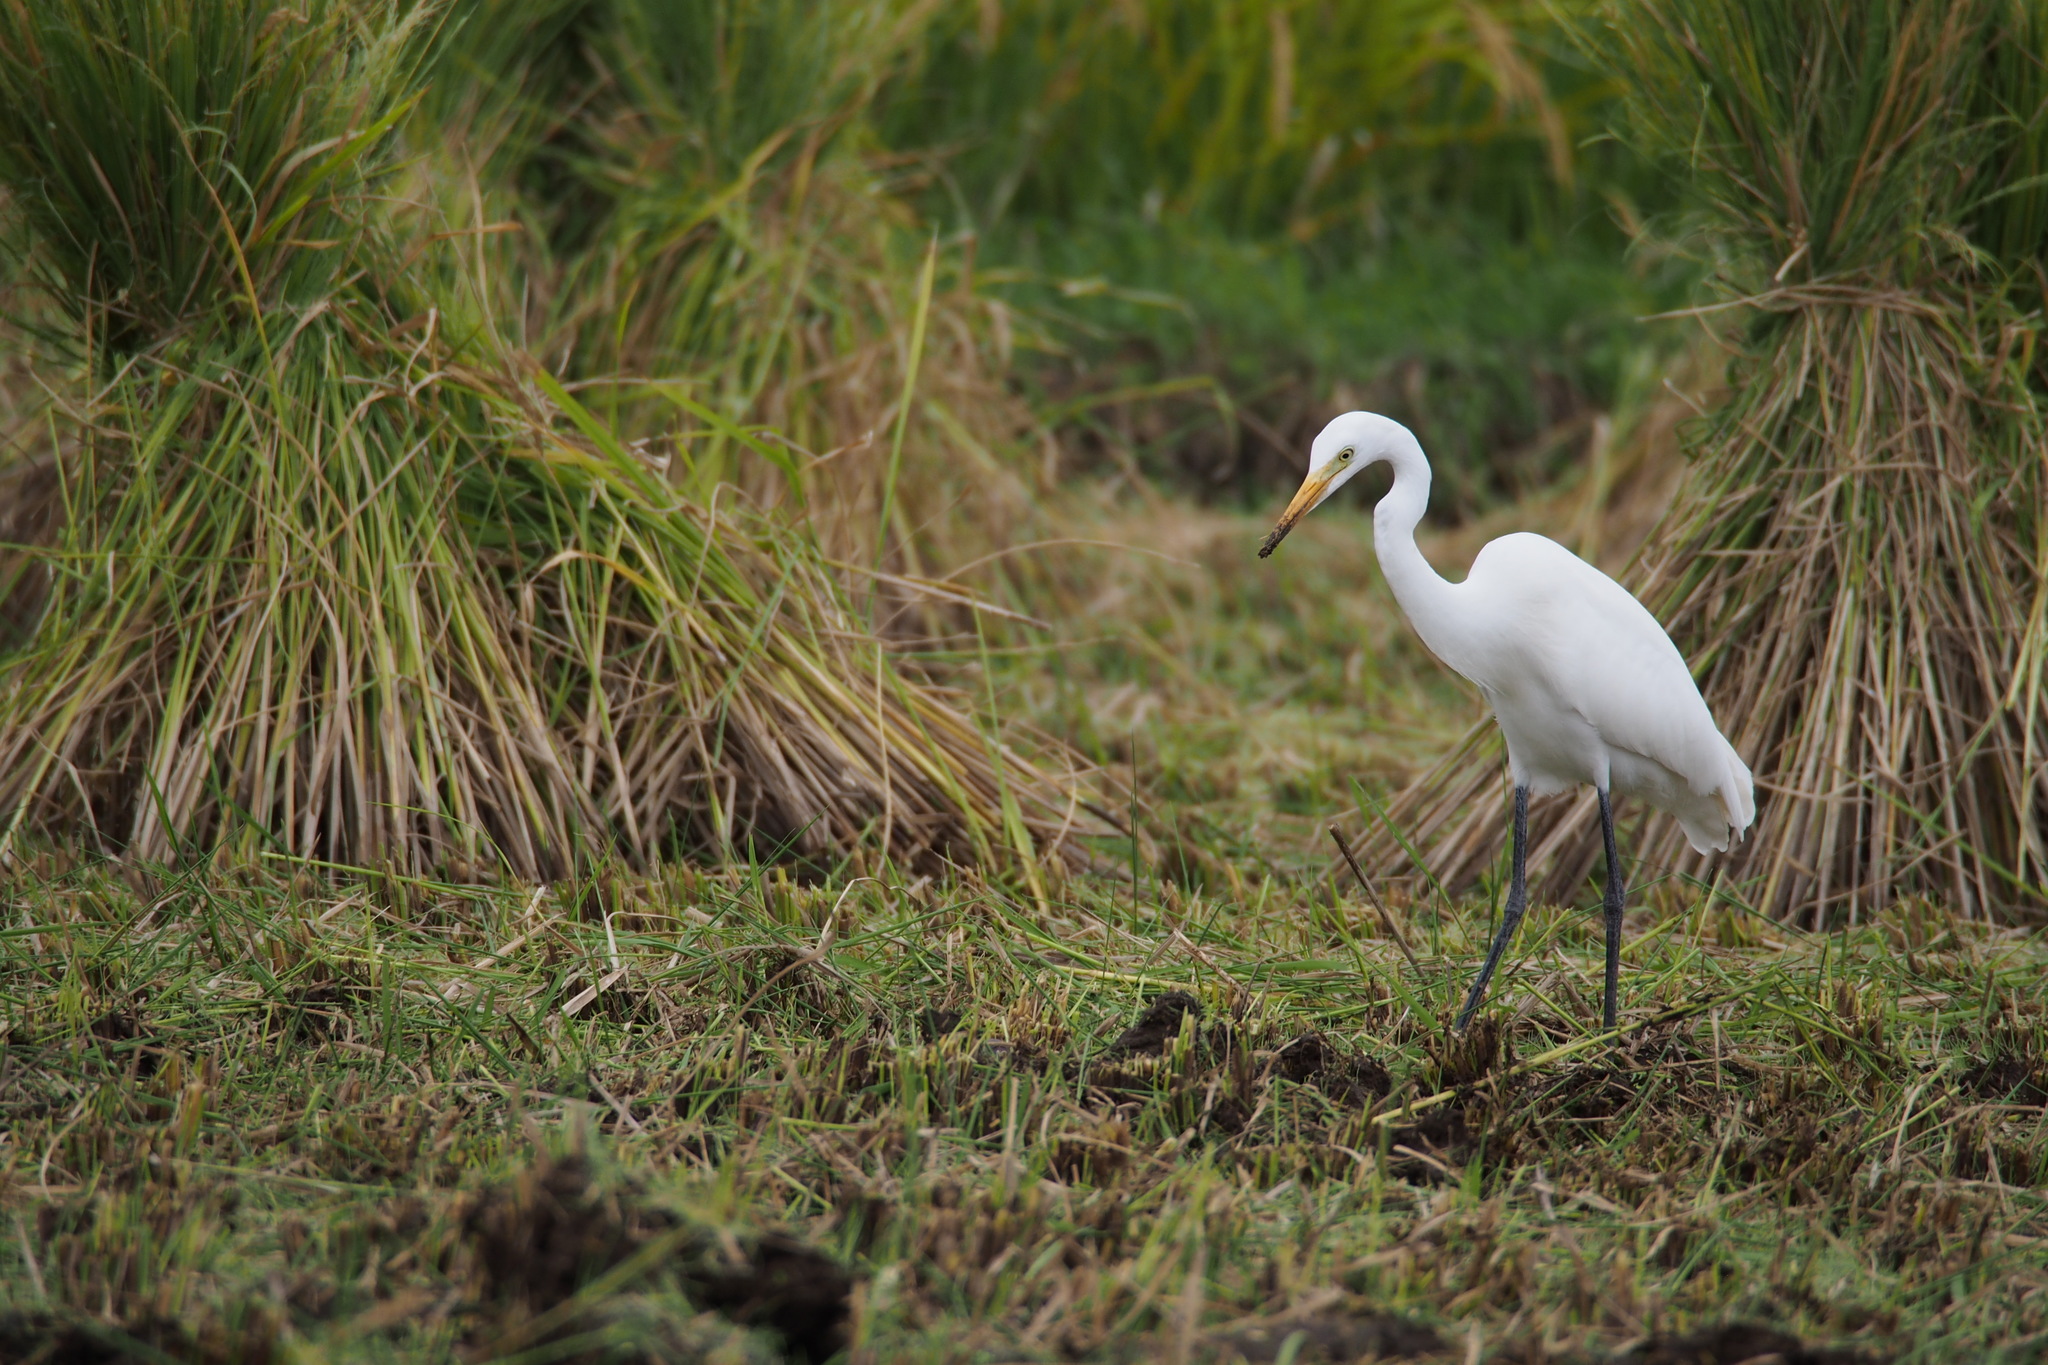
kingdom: Animalia
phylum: Chordata
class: Aves
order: Pelecaniformes
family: Ardeidae
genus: Egretta
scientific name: Egretta intermedia
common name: Intermediate egret
